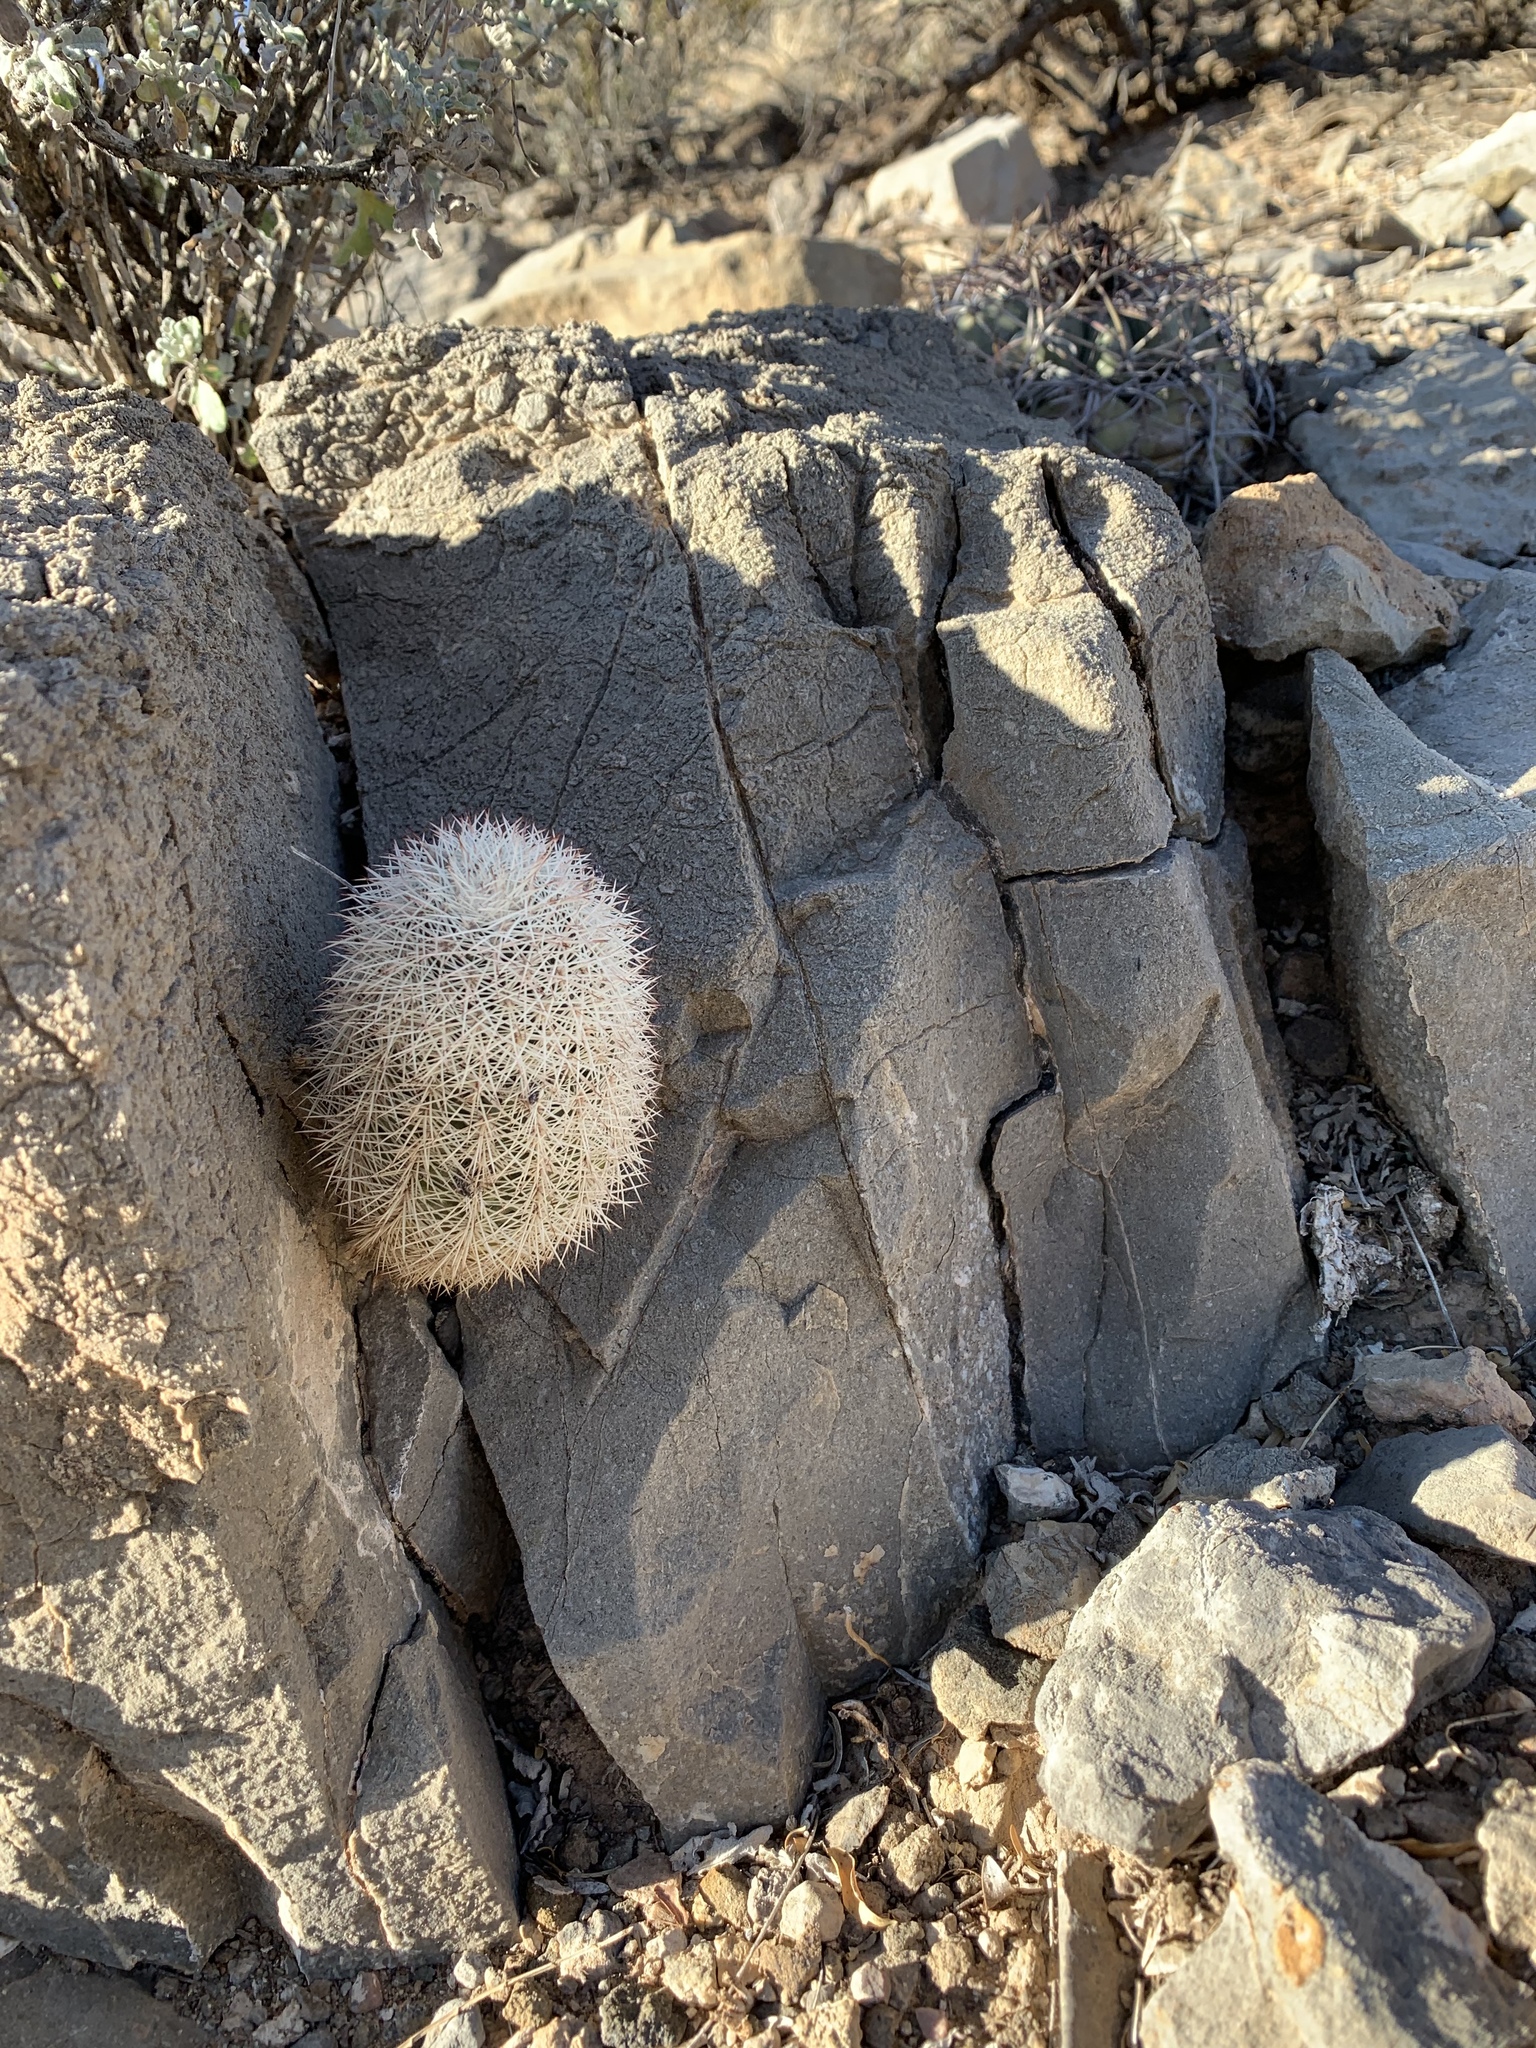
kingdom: Plantae
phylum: Tracheophyta
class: Magnoliopsida
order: Caryophyllales
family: Cactaceae
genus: Echinocereus
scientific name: Echinocereus dasyacanthus
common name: Spiny hedgehog cactus
